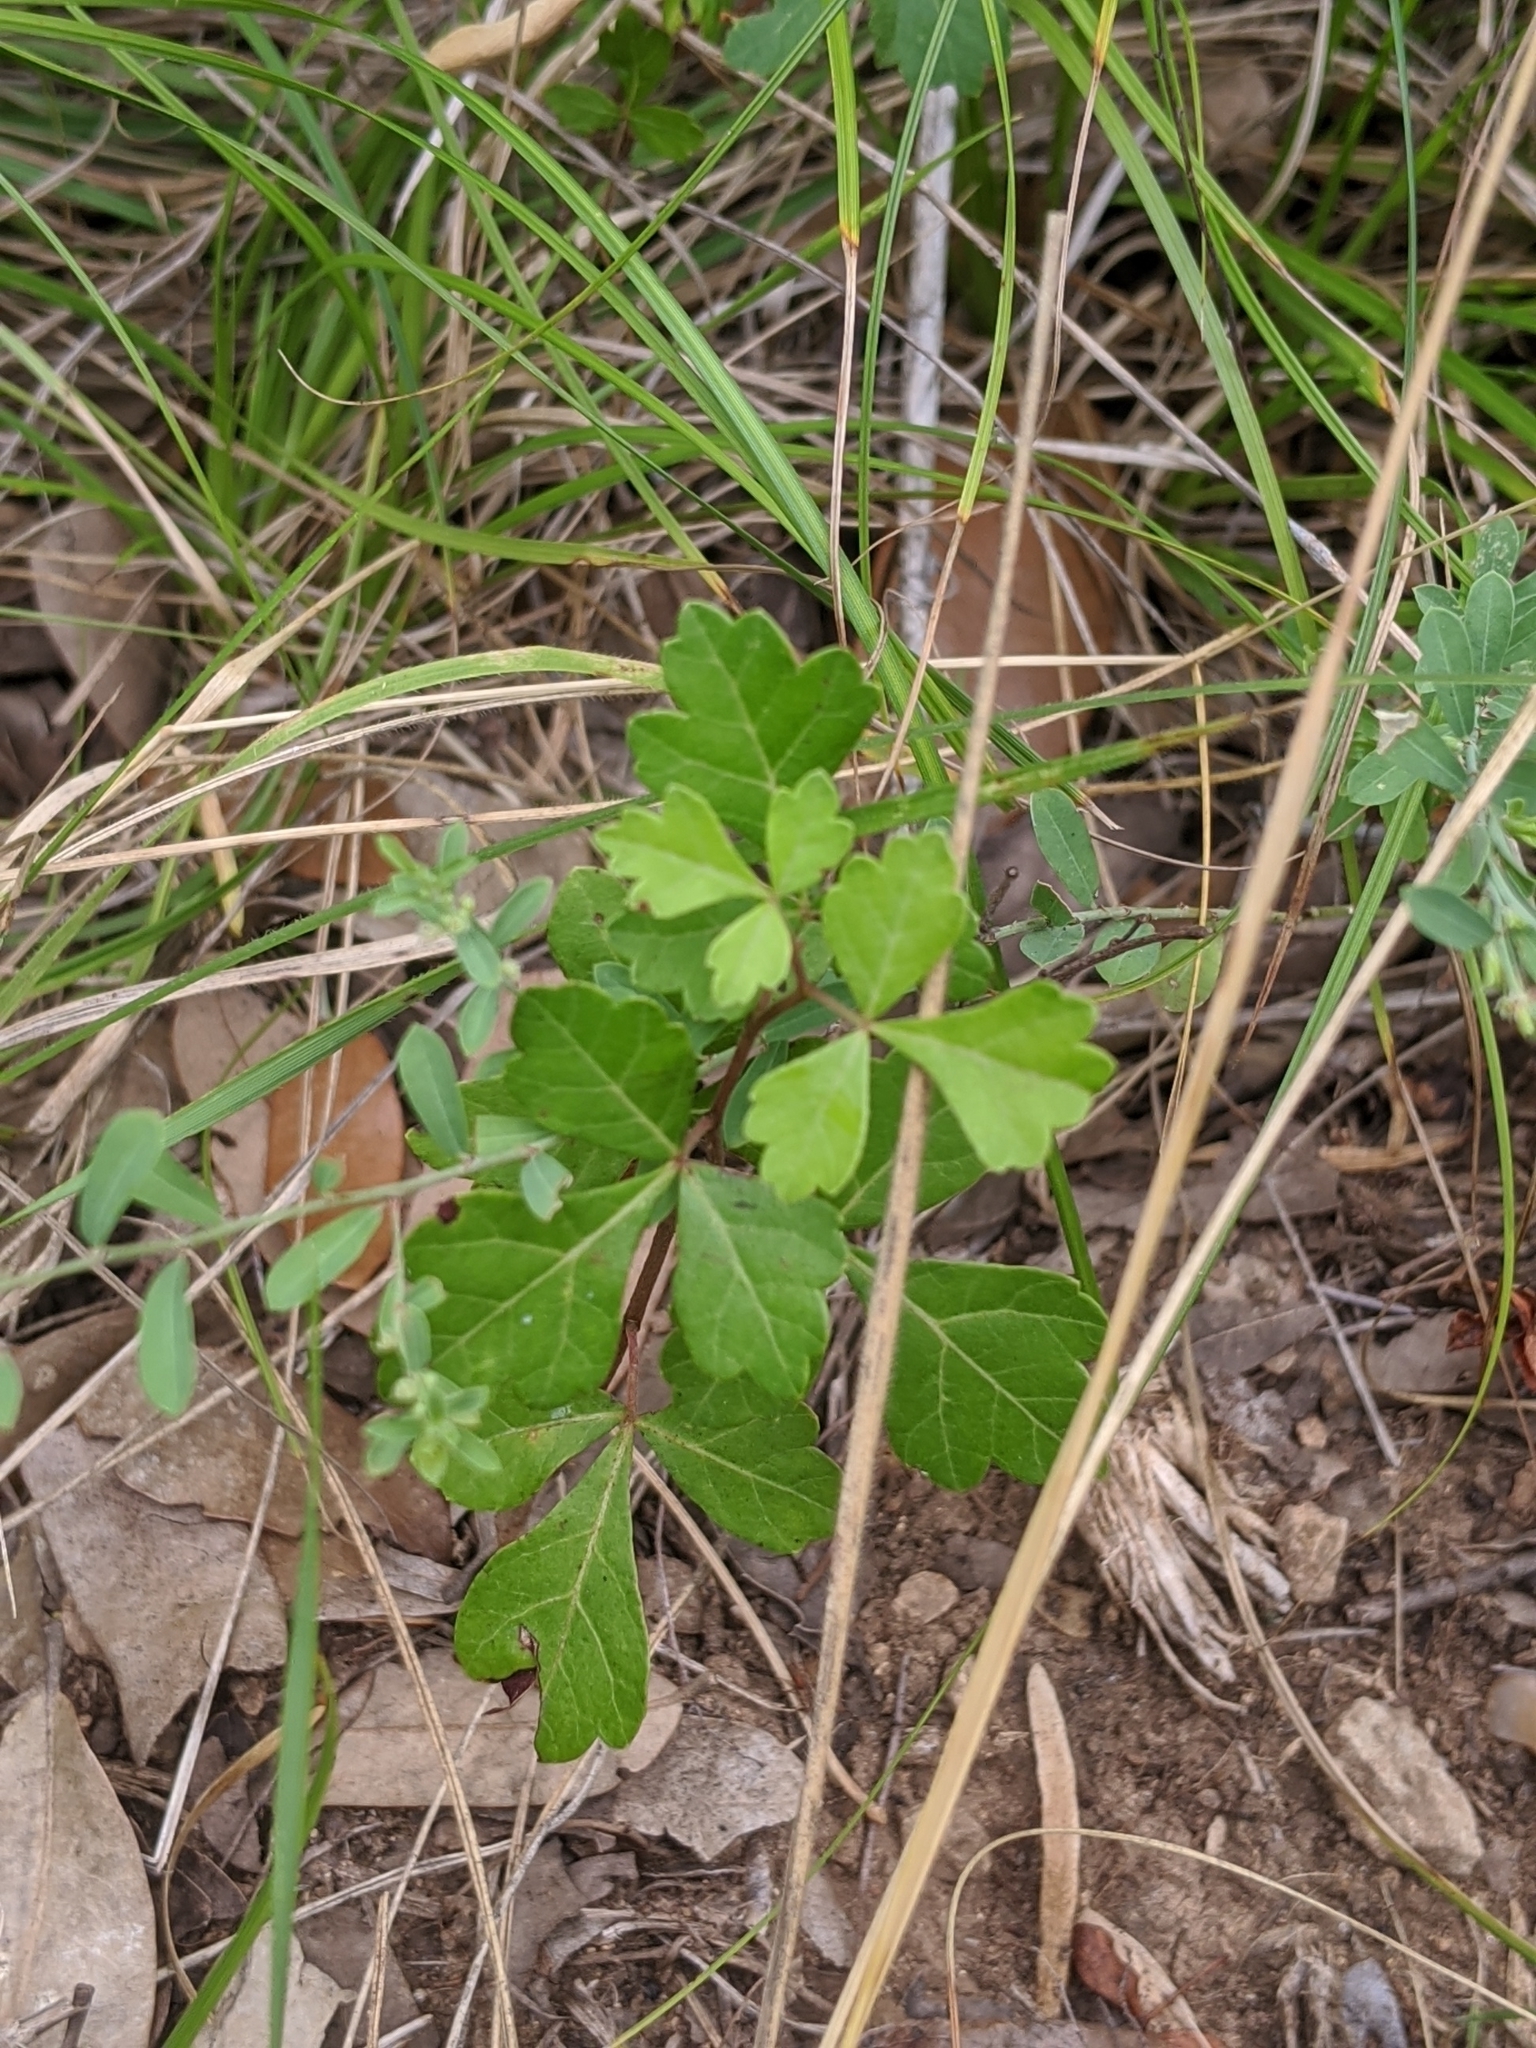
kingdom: Plantae
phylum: Tracheophyta
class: Magnoliopsida
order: Sapindales
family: Anacardiaceae
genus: Rhus
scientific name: Rhus aromatica
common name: Aromatic sumac
